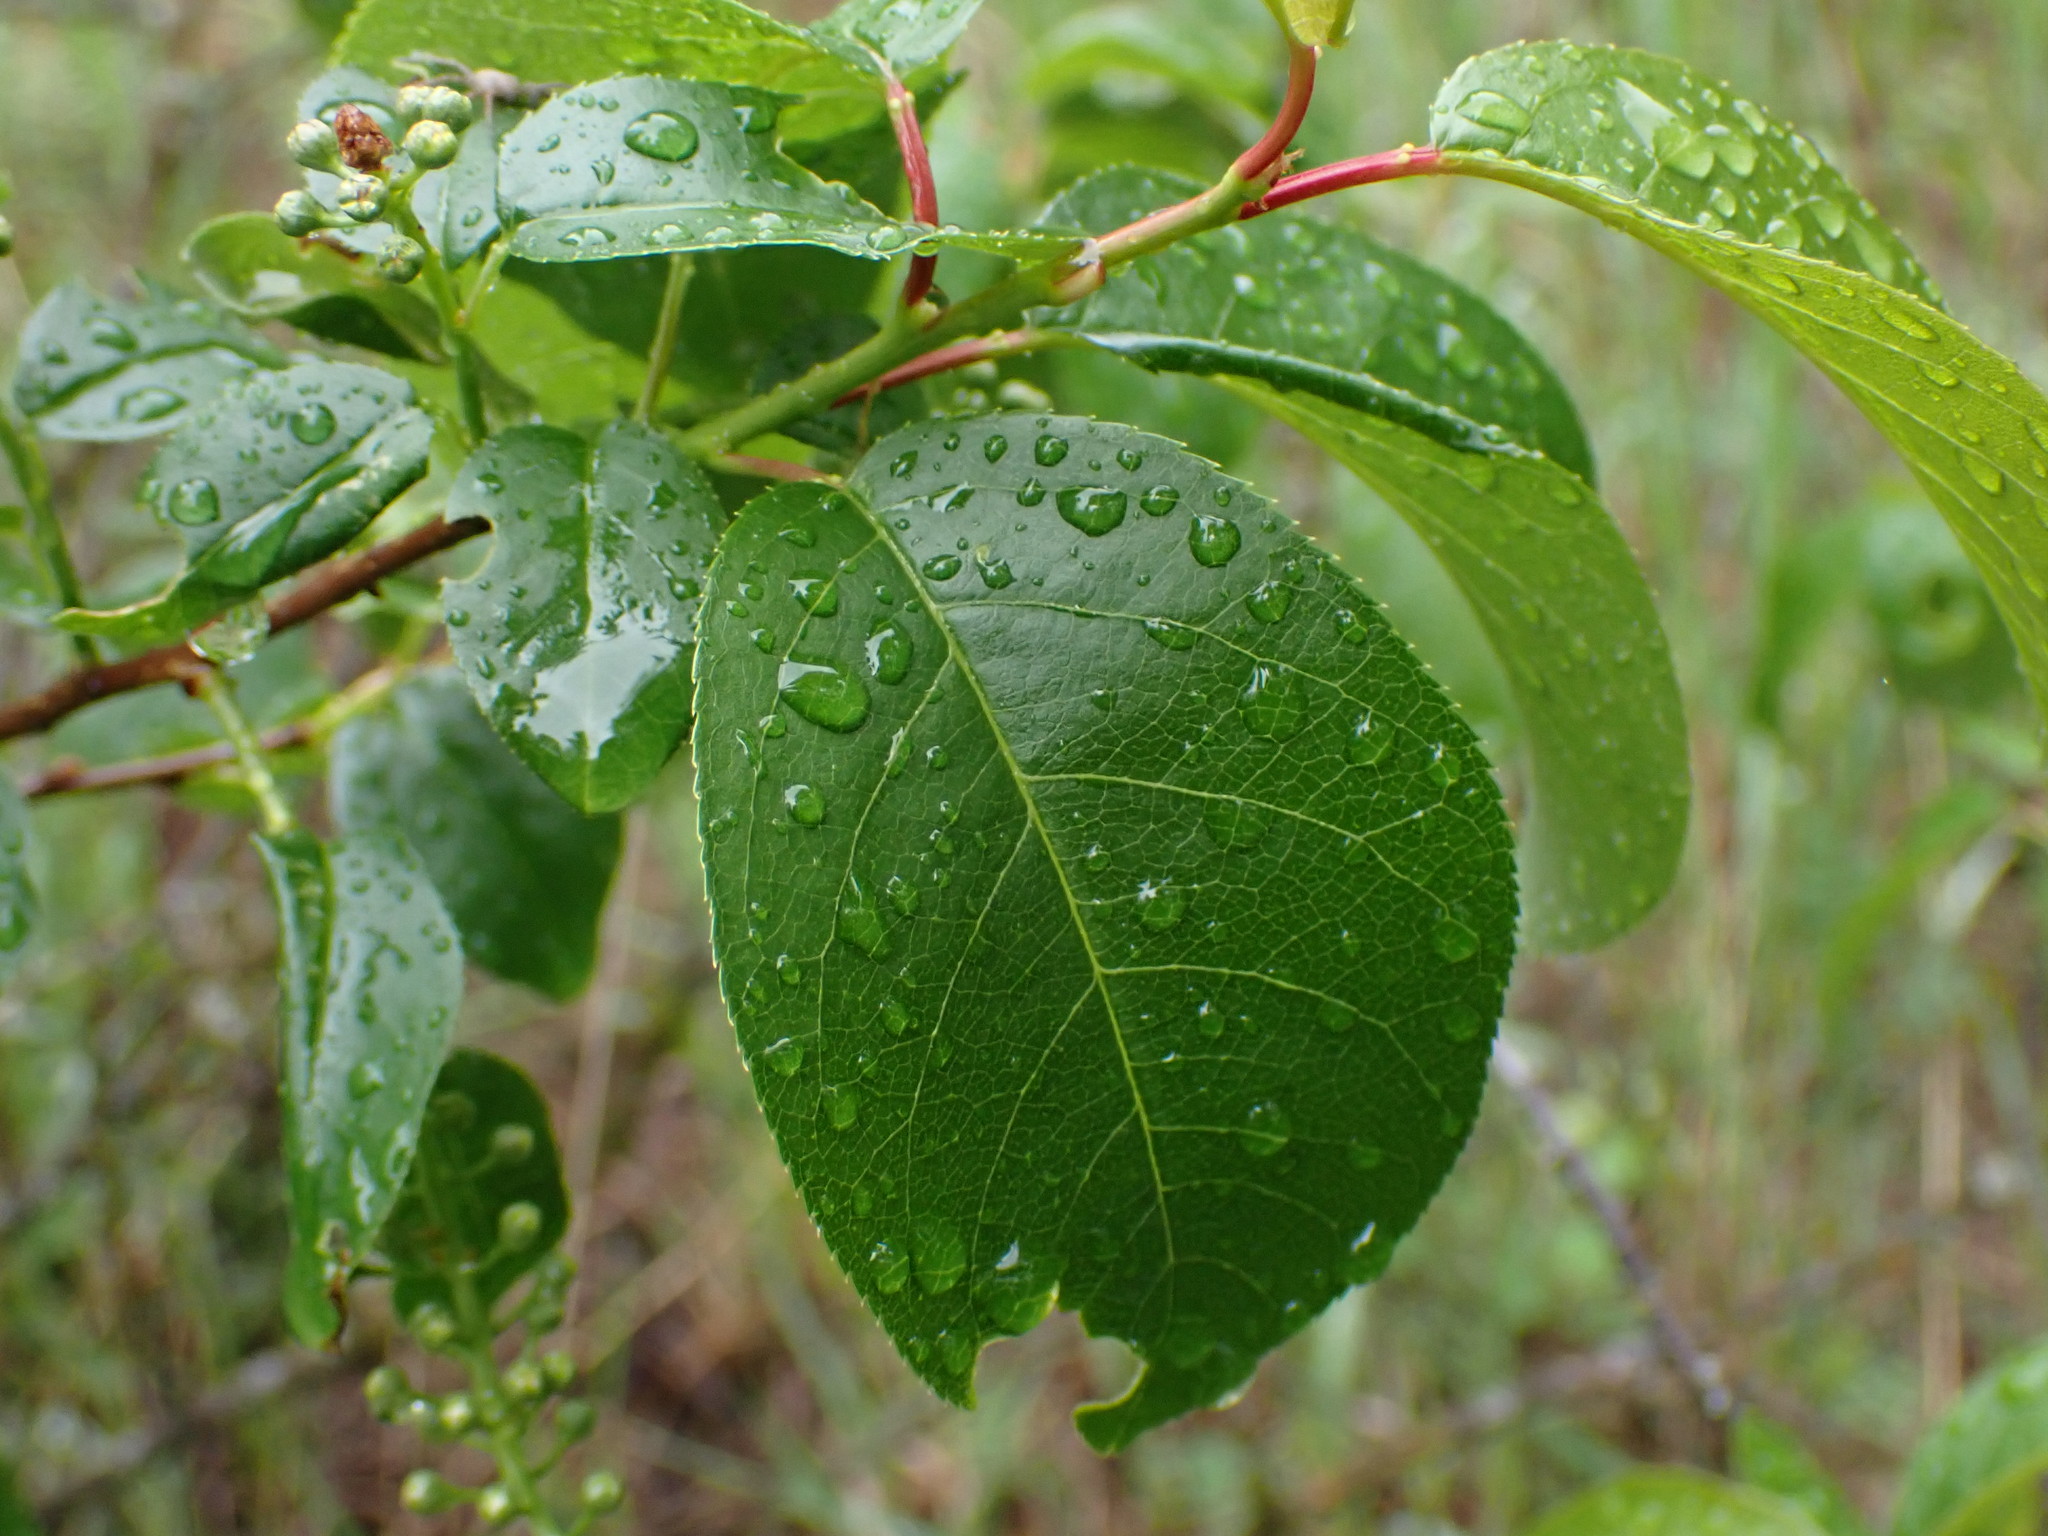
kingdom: Plantae
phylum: Tracheophyta
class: Magnoliopsida
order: Rosales
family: Rosaceae
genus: Prunus
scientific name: Prunus virginiana
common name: Chokecherry
